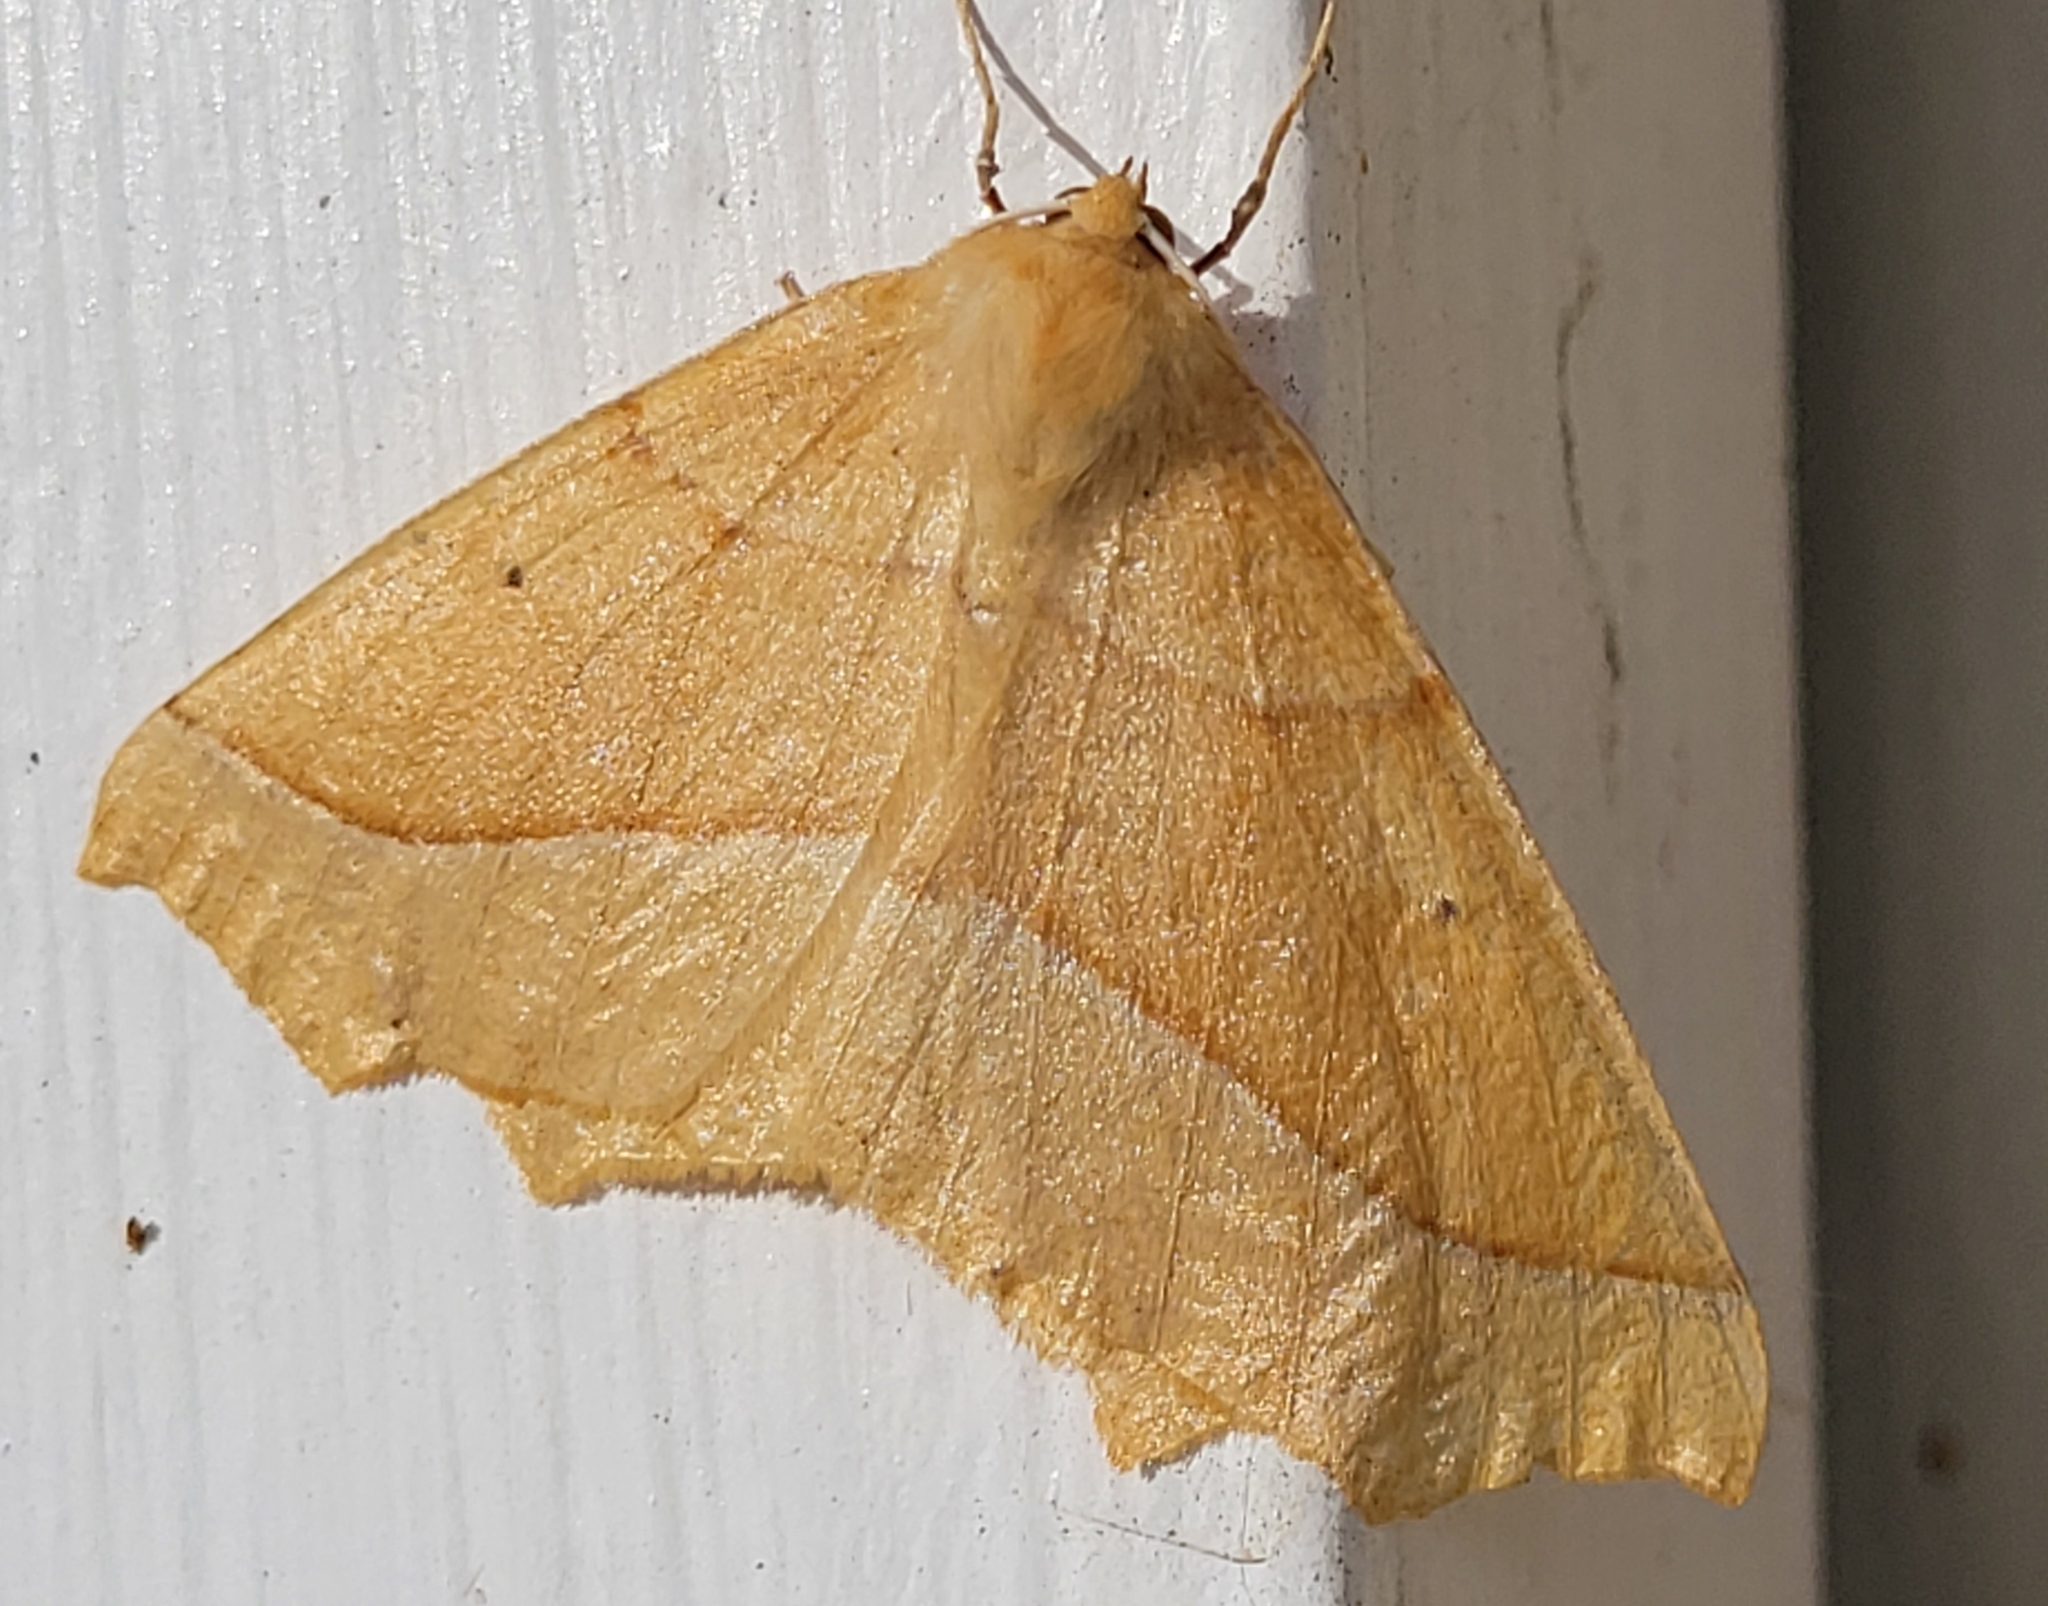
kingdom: Animalia
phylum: Arthropoda
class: Insecta
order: Lepidoptera
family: Geometridae
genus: Synaxis
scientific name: Synaxis jubararia
